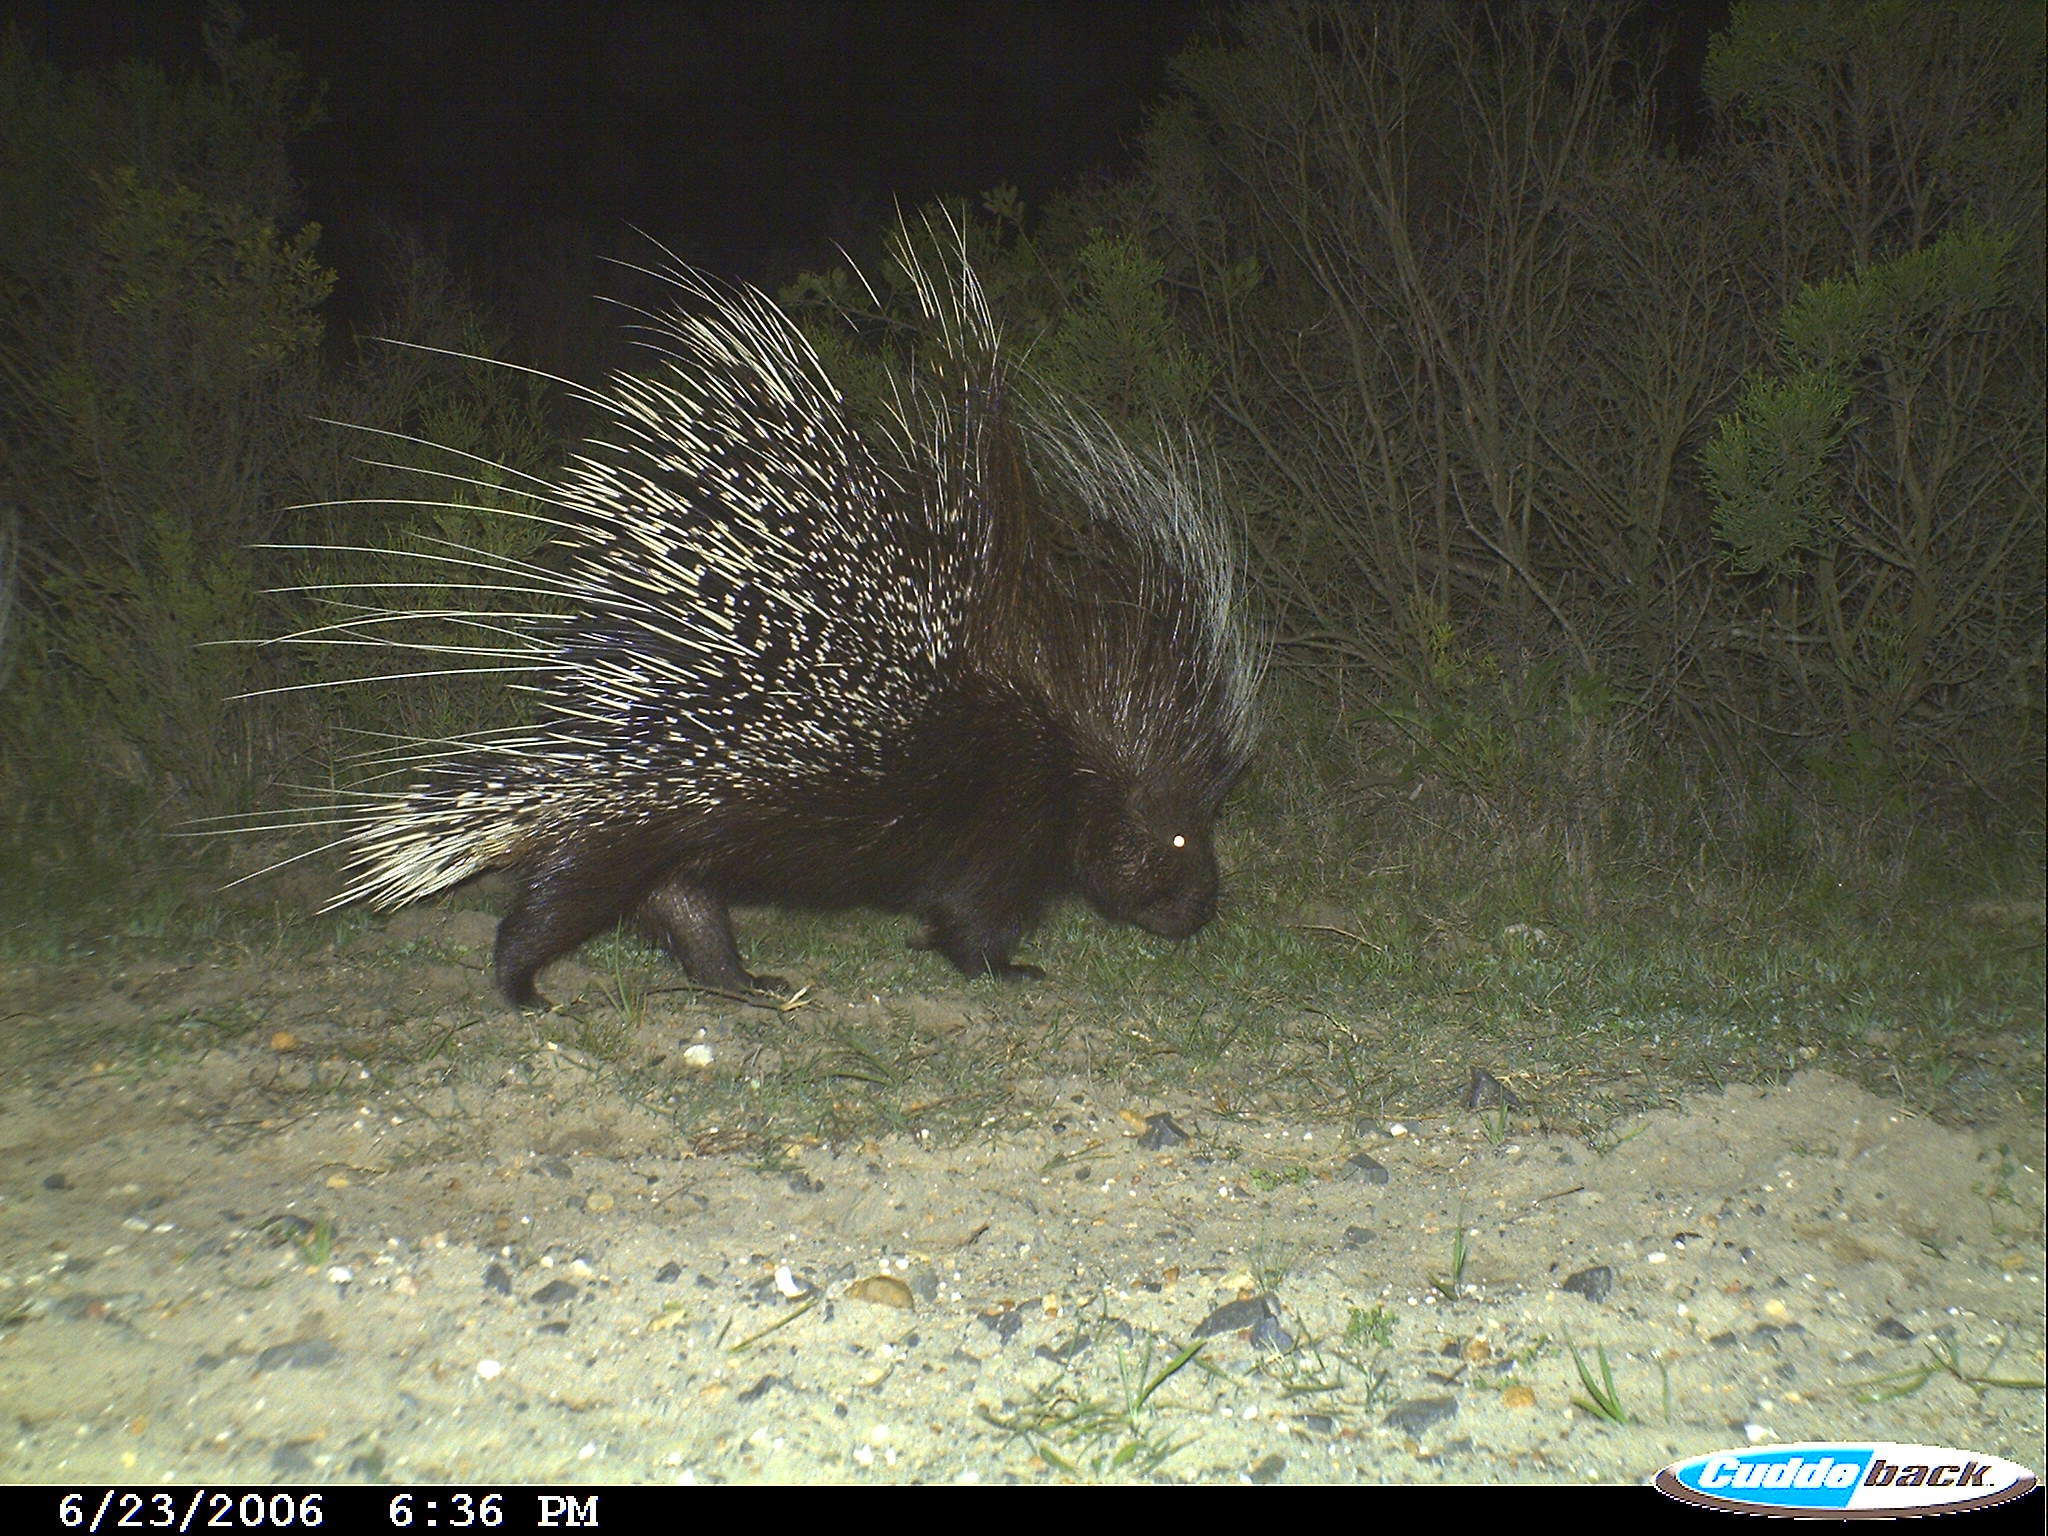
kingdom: Animalia
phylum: Chordata
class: Mammalia
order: Rodentia
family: Hystricidae
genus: Hystrix
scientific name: Hystrix africaeaustralis
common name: Cape porcupine
